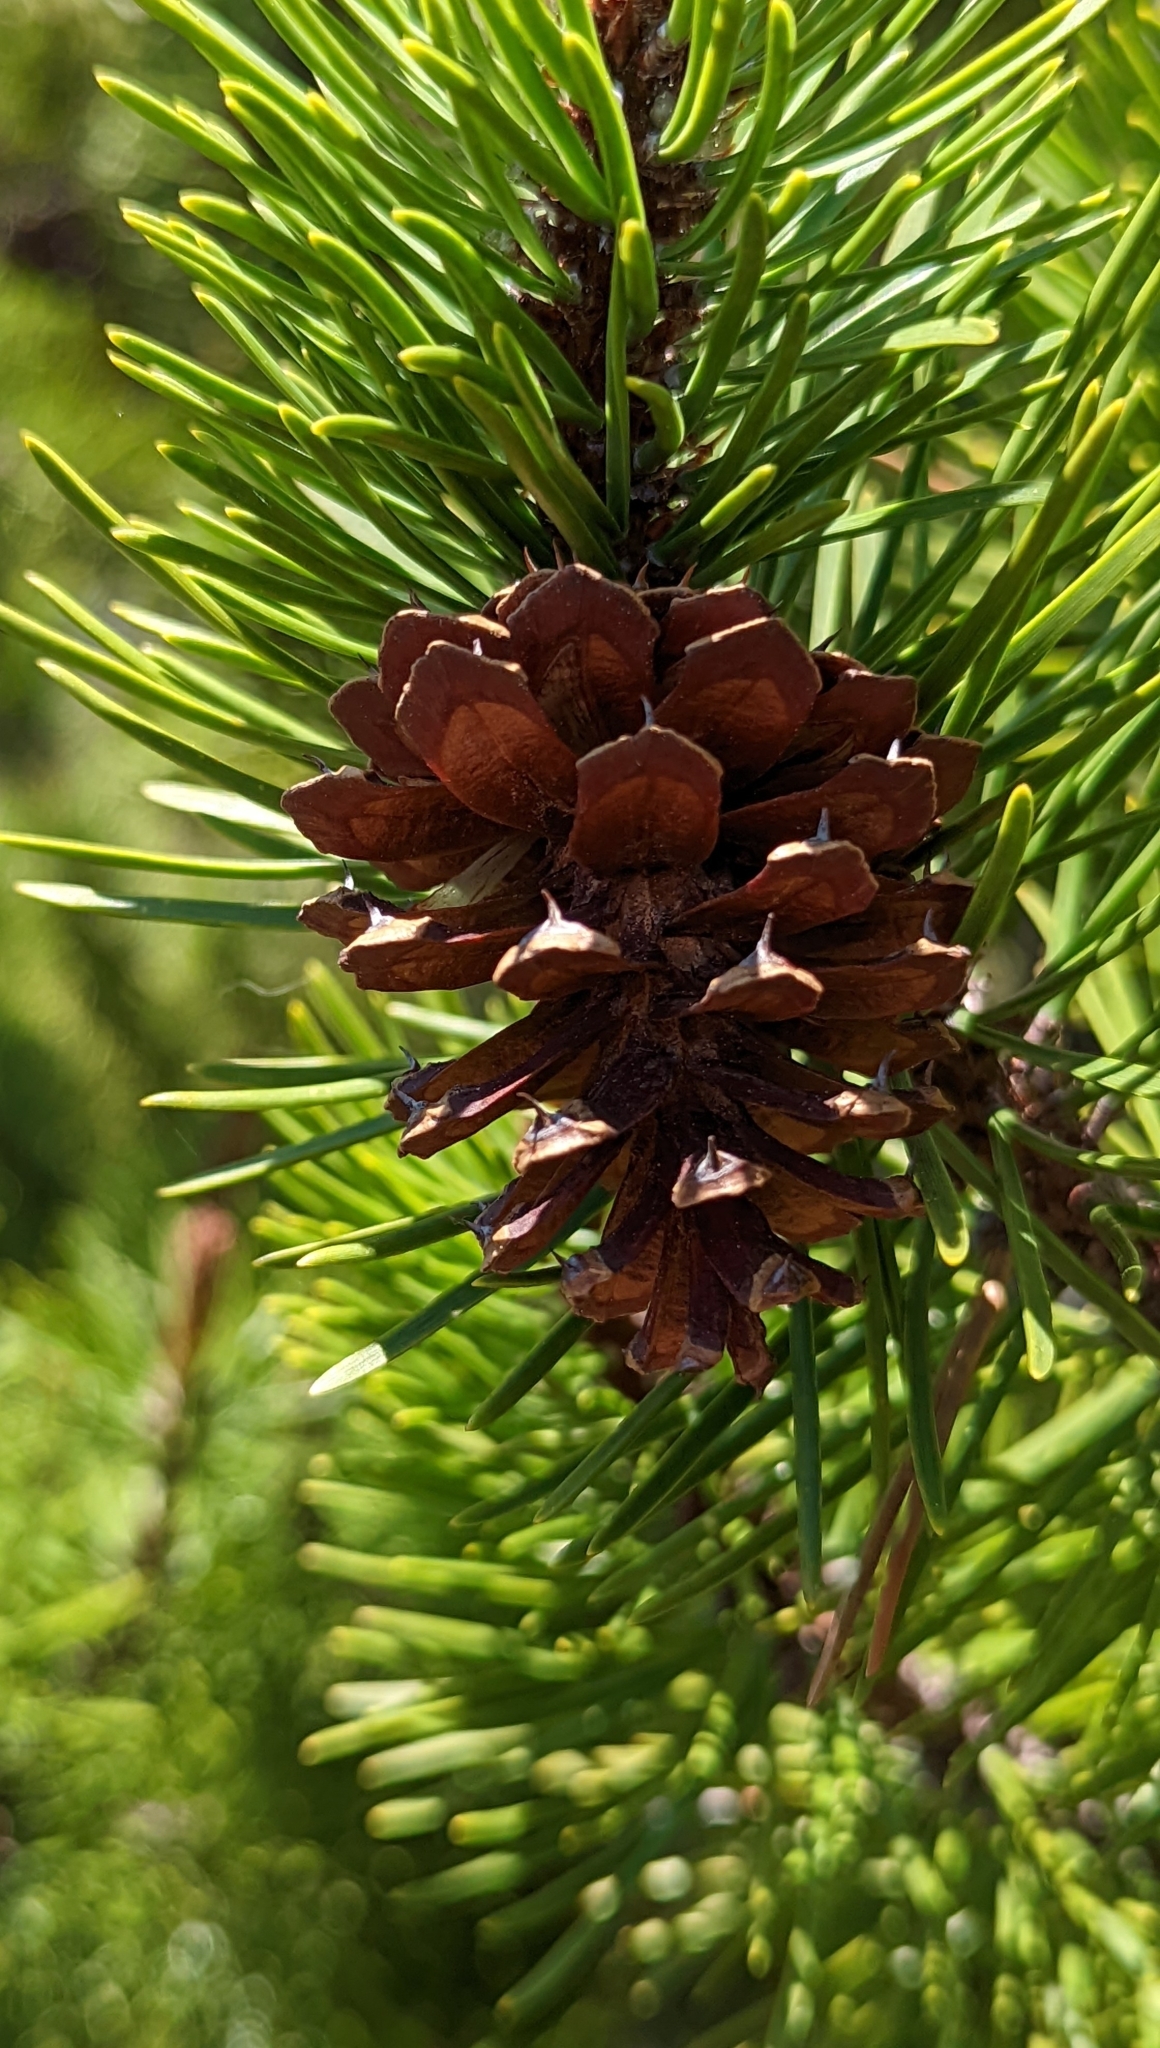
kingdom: Plantae
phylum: Tracheophyta
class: Pinopsida
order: Pinales
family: Pinaceae
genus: Pinus
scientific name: Pinus contorta
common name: Lodgepole pine
